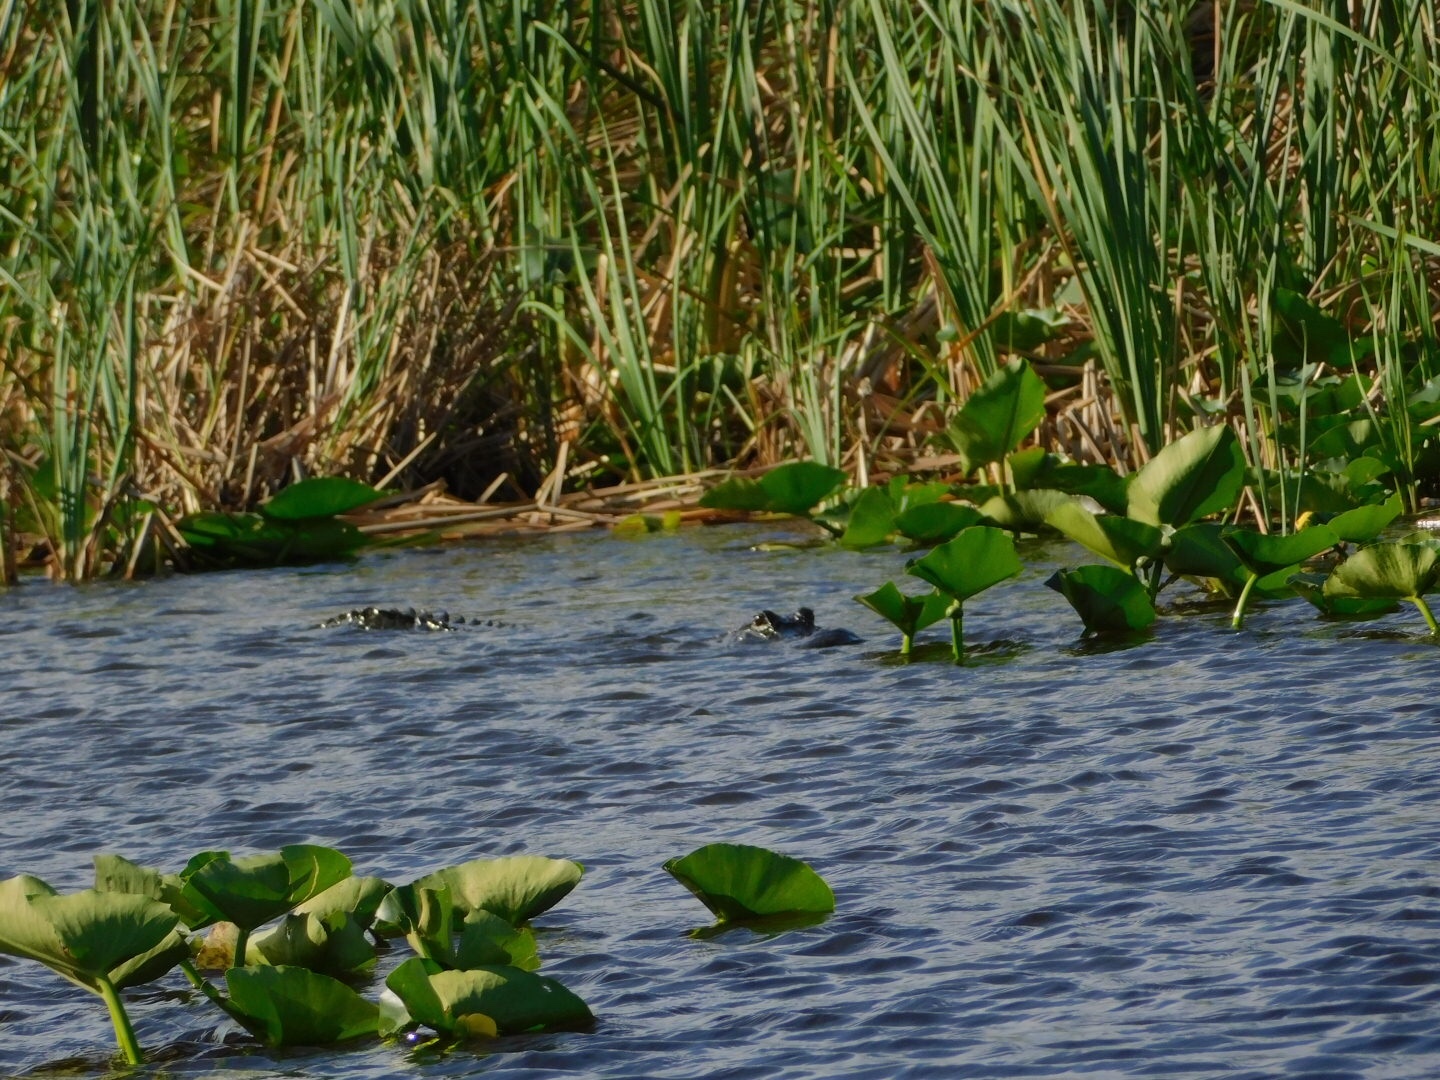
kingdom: Animalia
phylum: Chordata
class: Crocodylia
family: Alligatoridae
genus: Alligator
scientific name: Alligator mississippiensis
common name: American alligator
